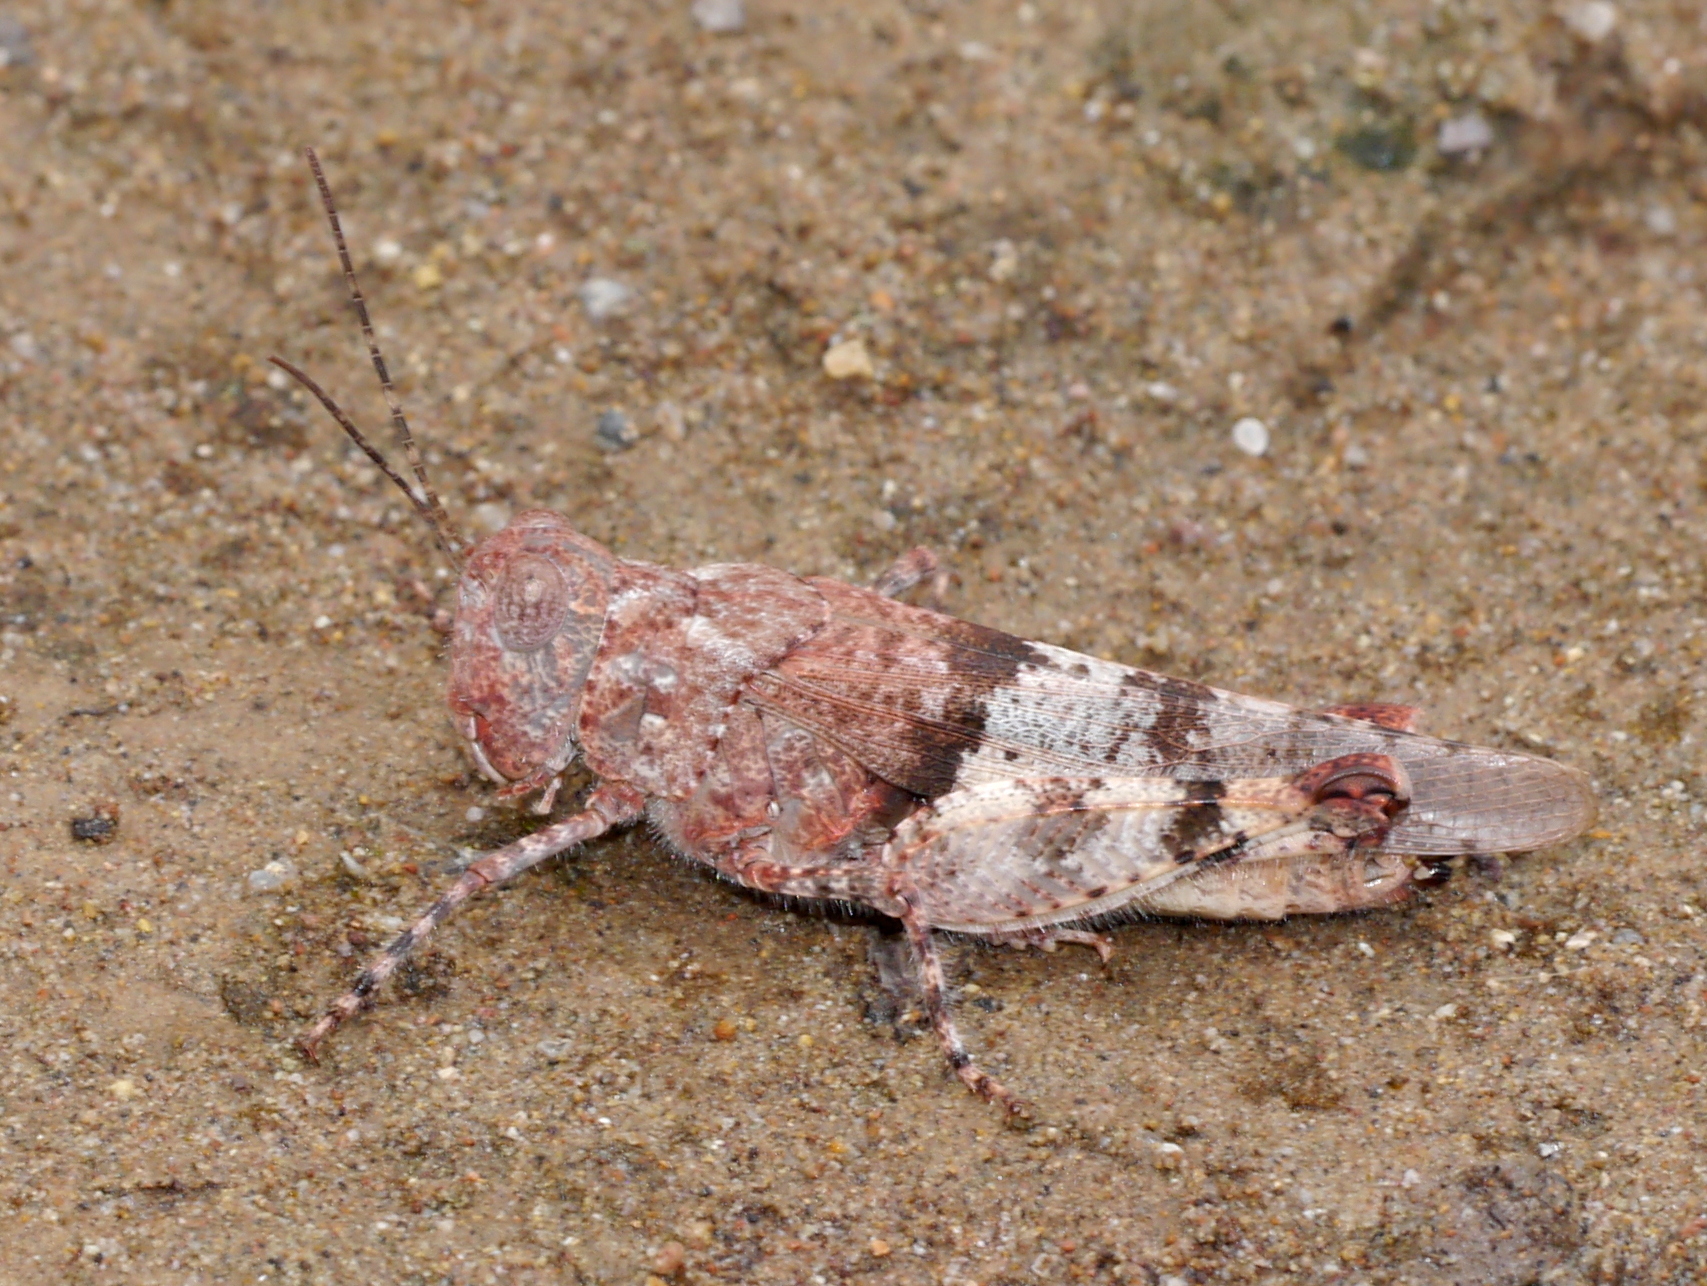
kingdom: Animalia
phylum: Arthropoda
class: Insecta
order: Orthoptera
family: Acrididae
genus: Heliastus
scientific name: Heliastus benjamini
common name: Arroyo grasshopper
